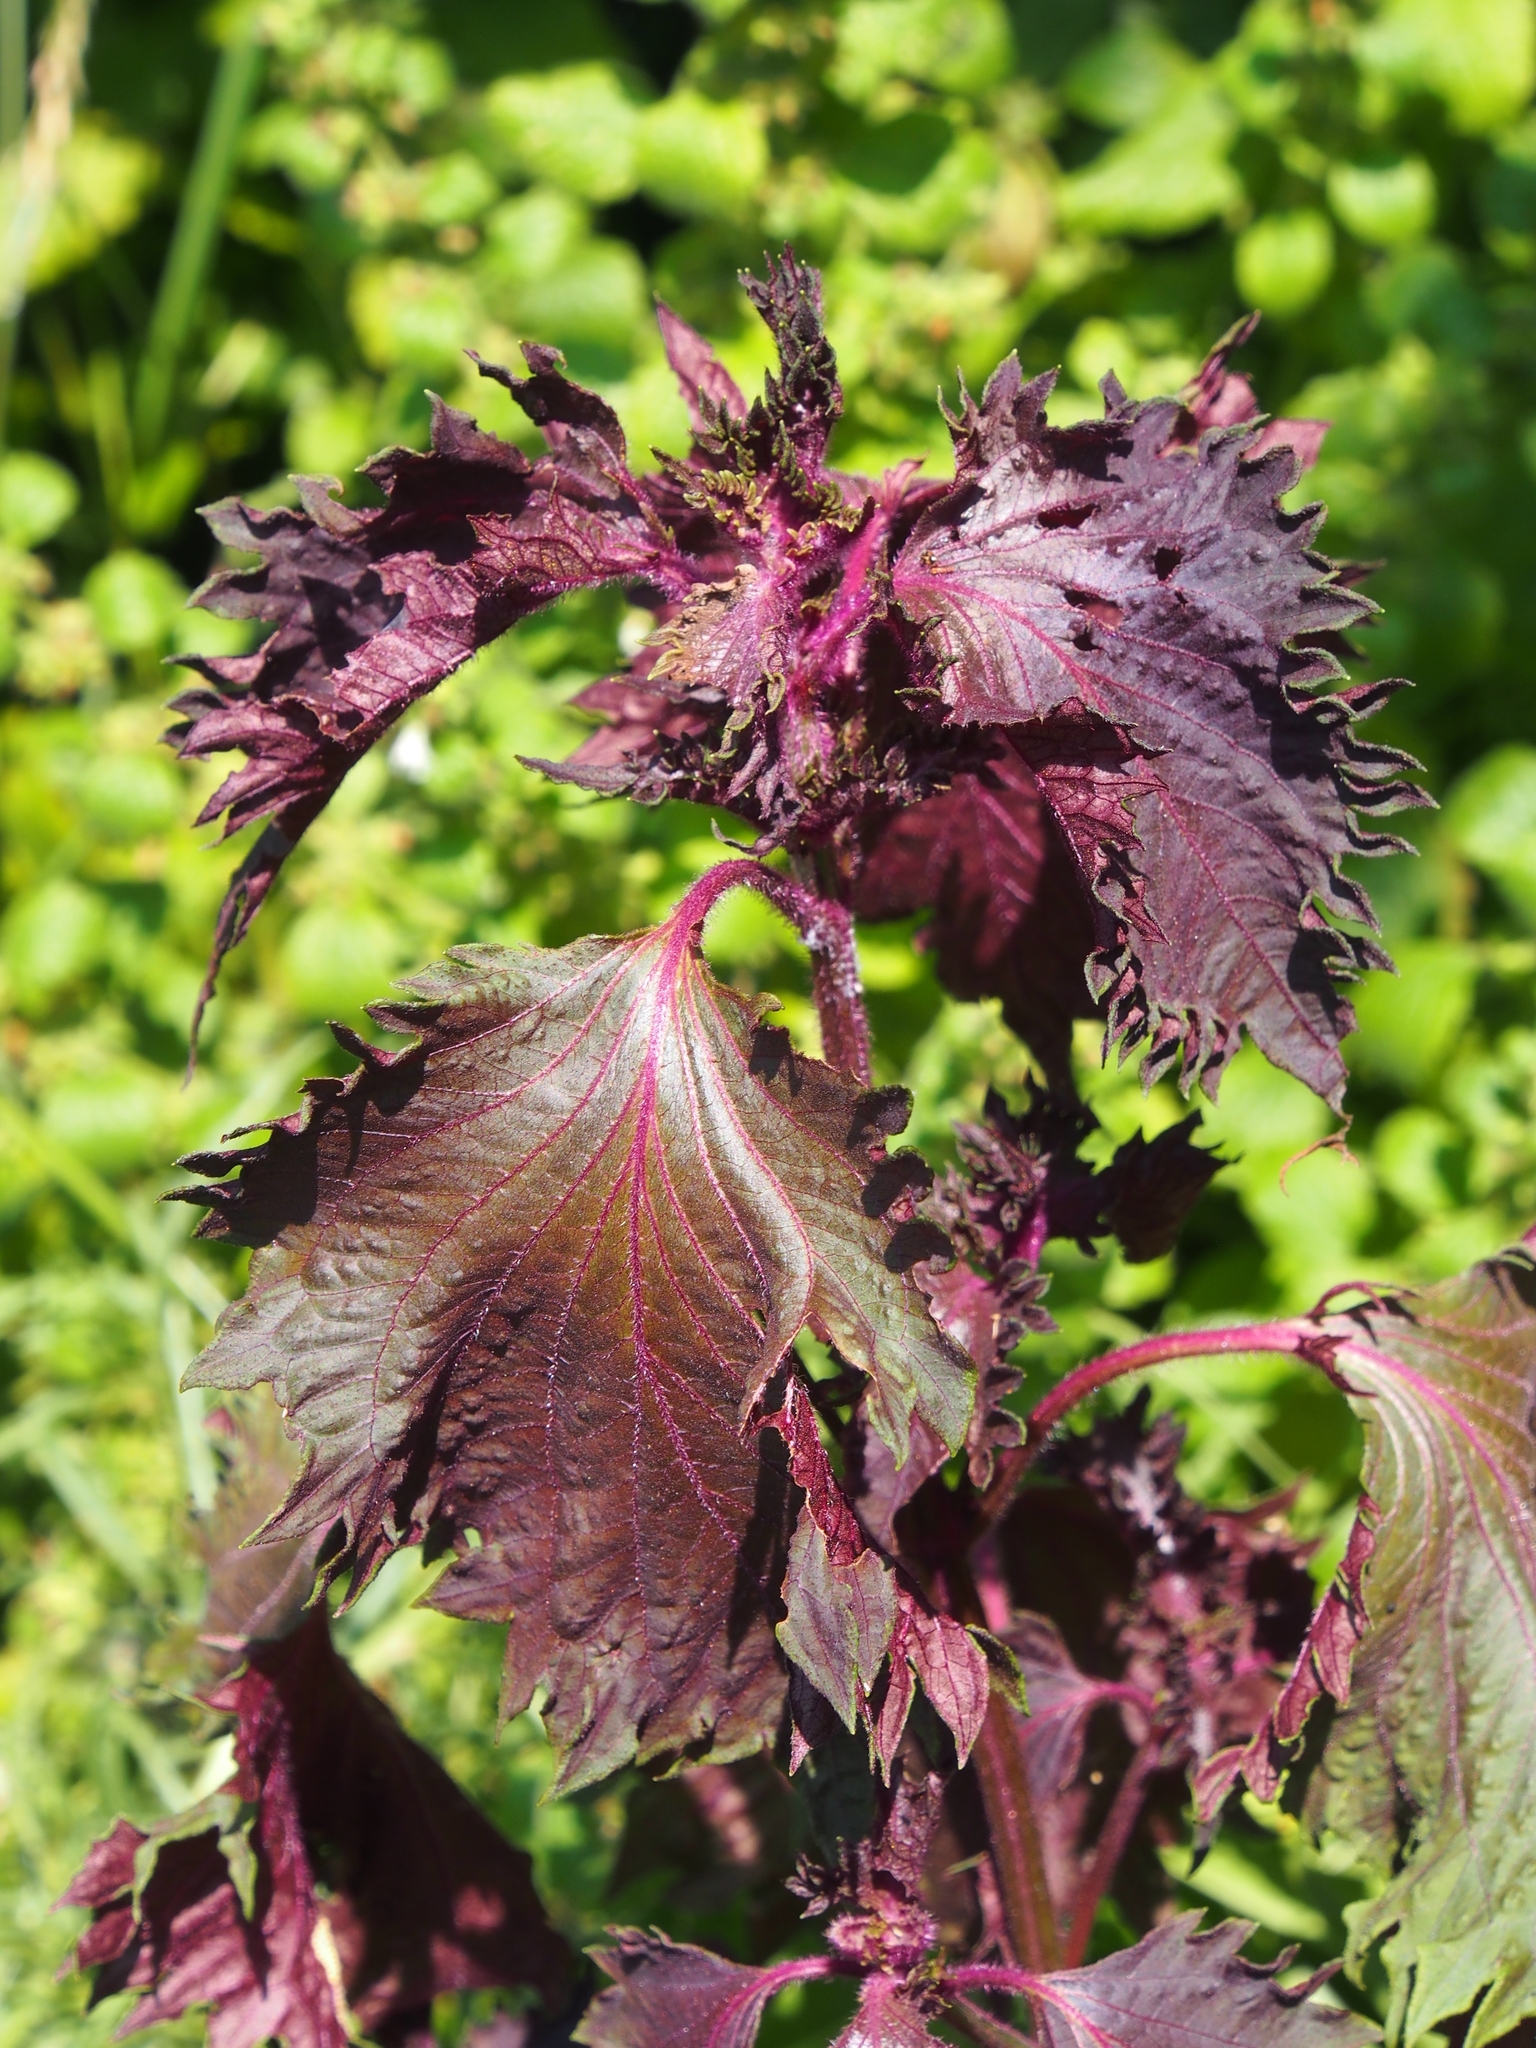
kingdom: Plantae
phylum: Tracheophyta
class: Magnoliopsida
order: Lamiales
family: Lamiaceae
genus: Perilla
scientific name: Perilla frutescens
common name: Perilla
